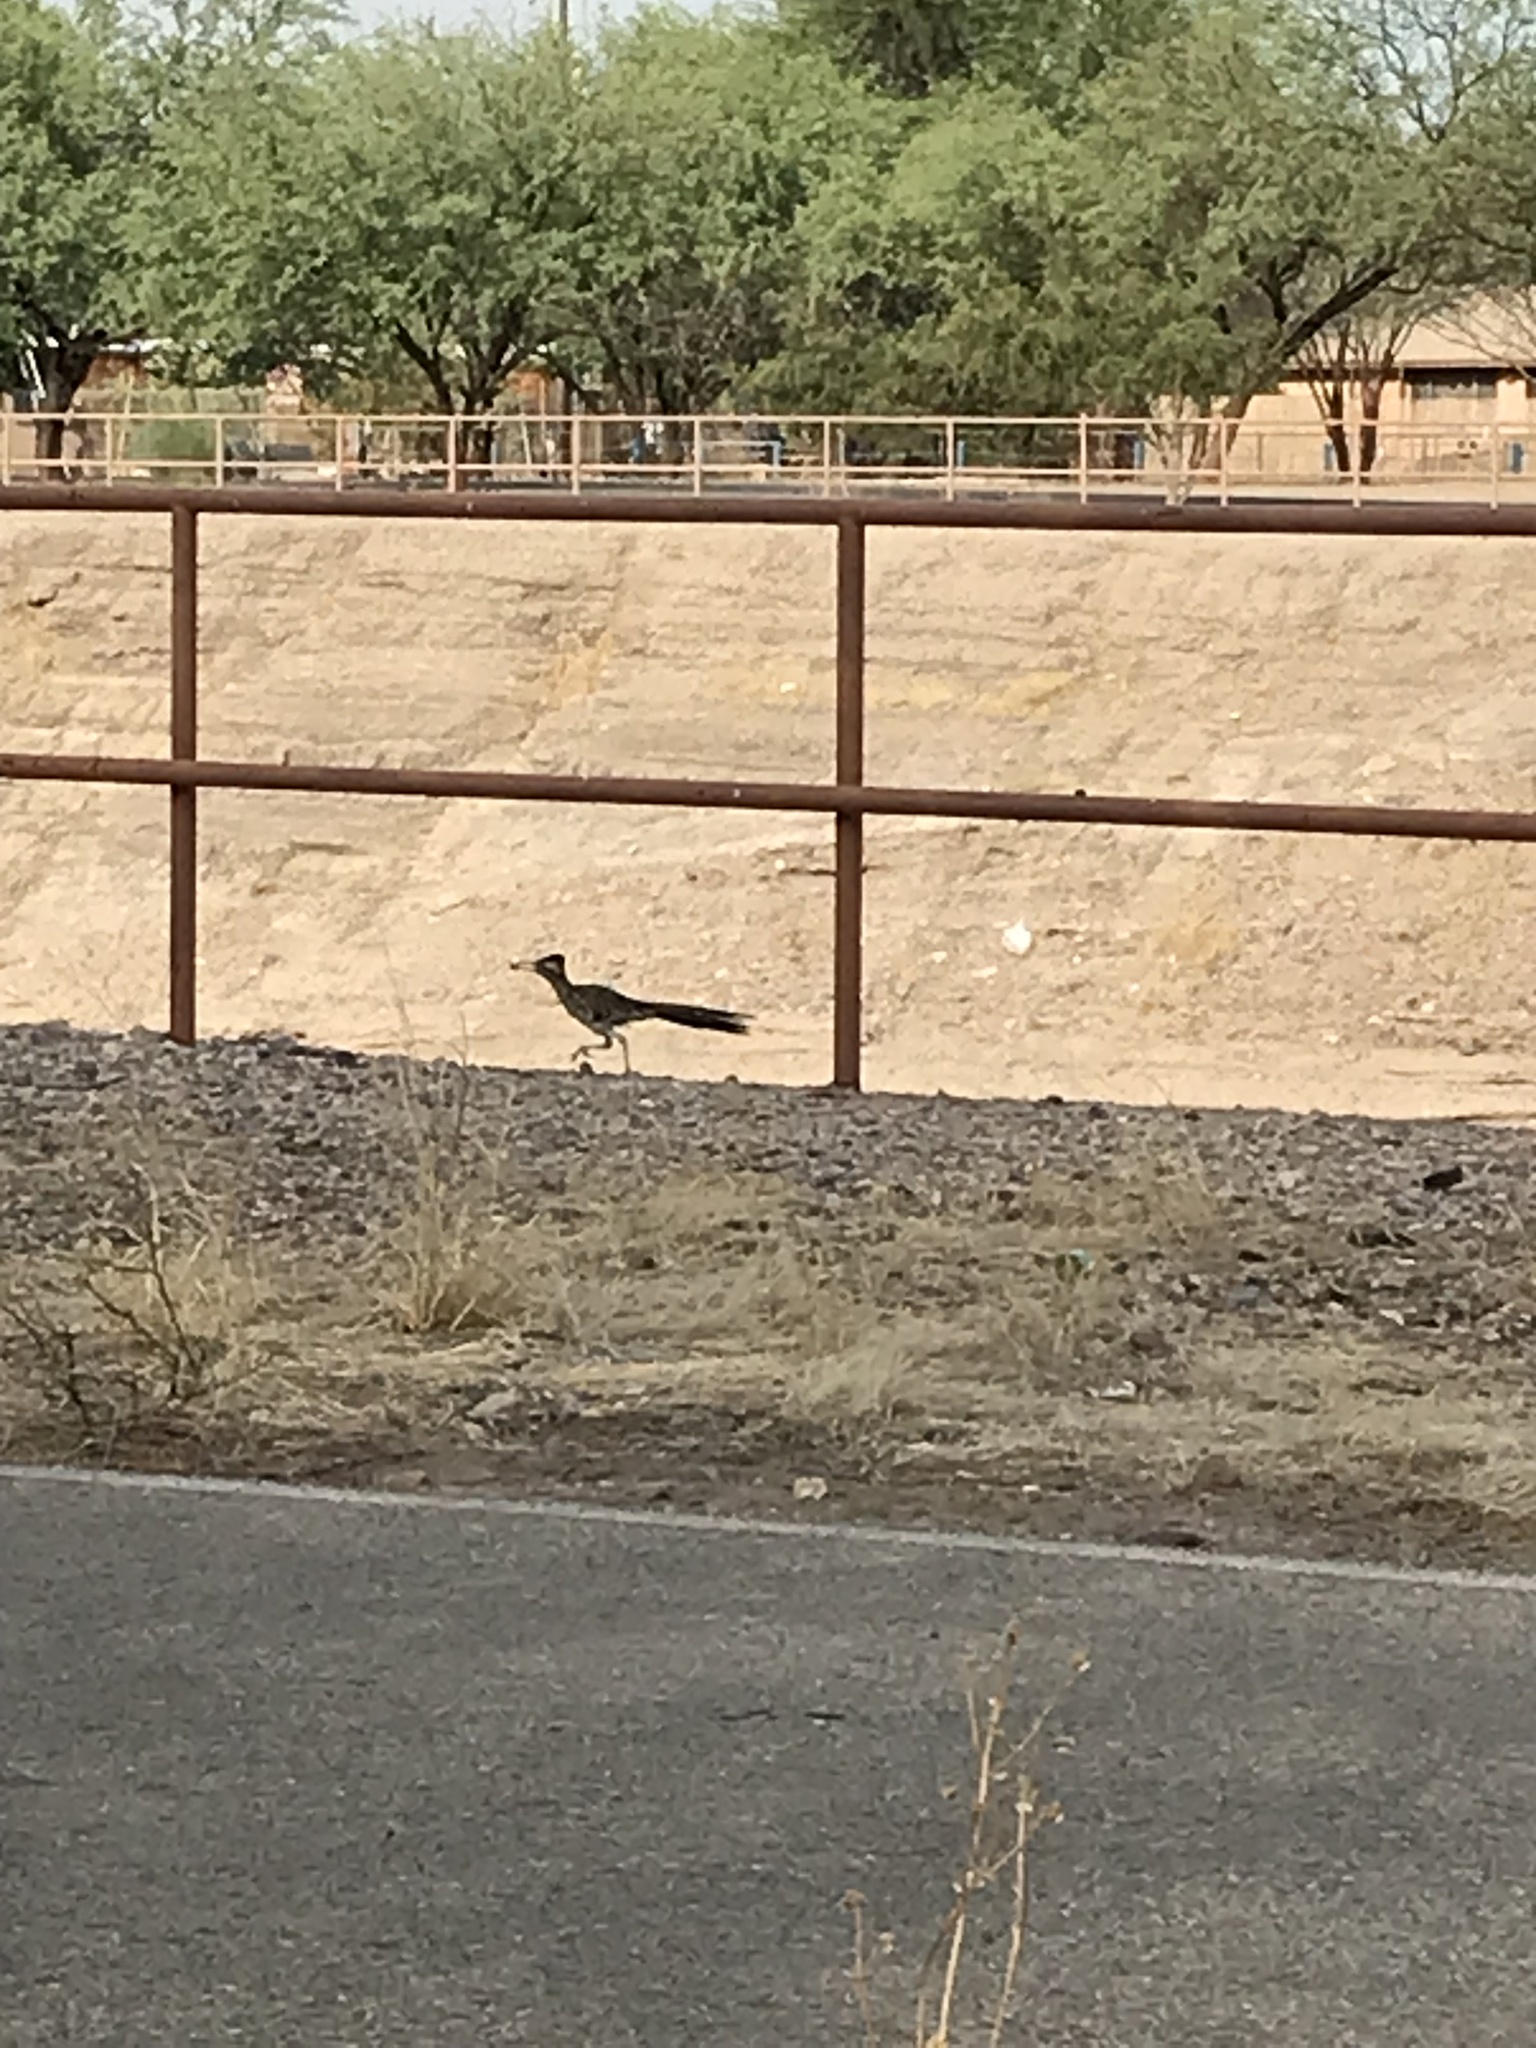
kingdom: Animalia
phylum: Chordata
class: Aves
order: Cuculiformes
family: Cuculidae
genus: Geococcyx
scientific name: Geococcyx californianus
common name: Greater roadrunner
